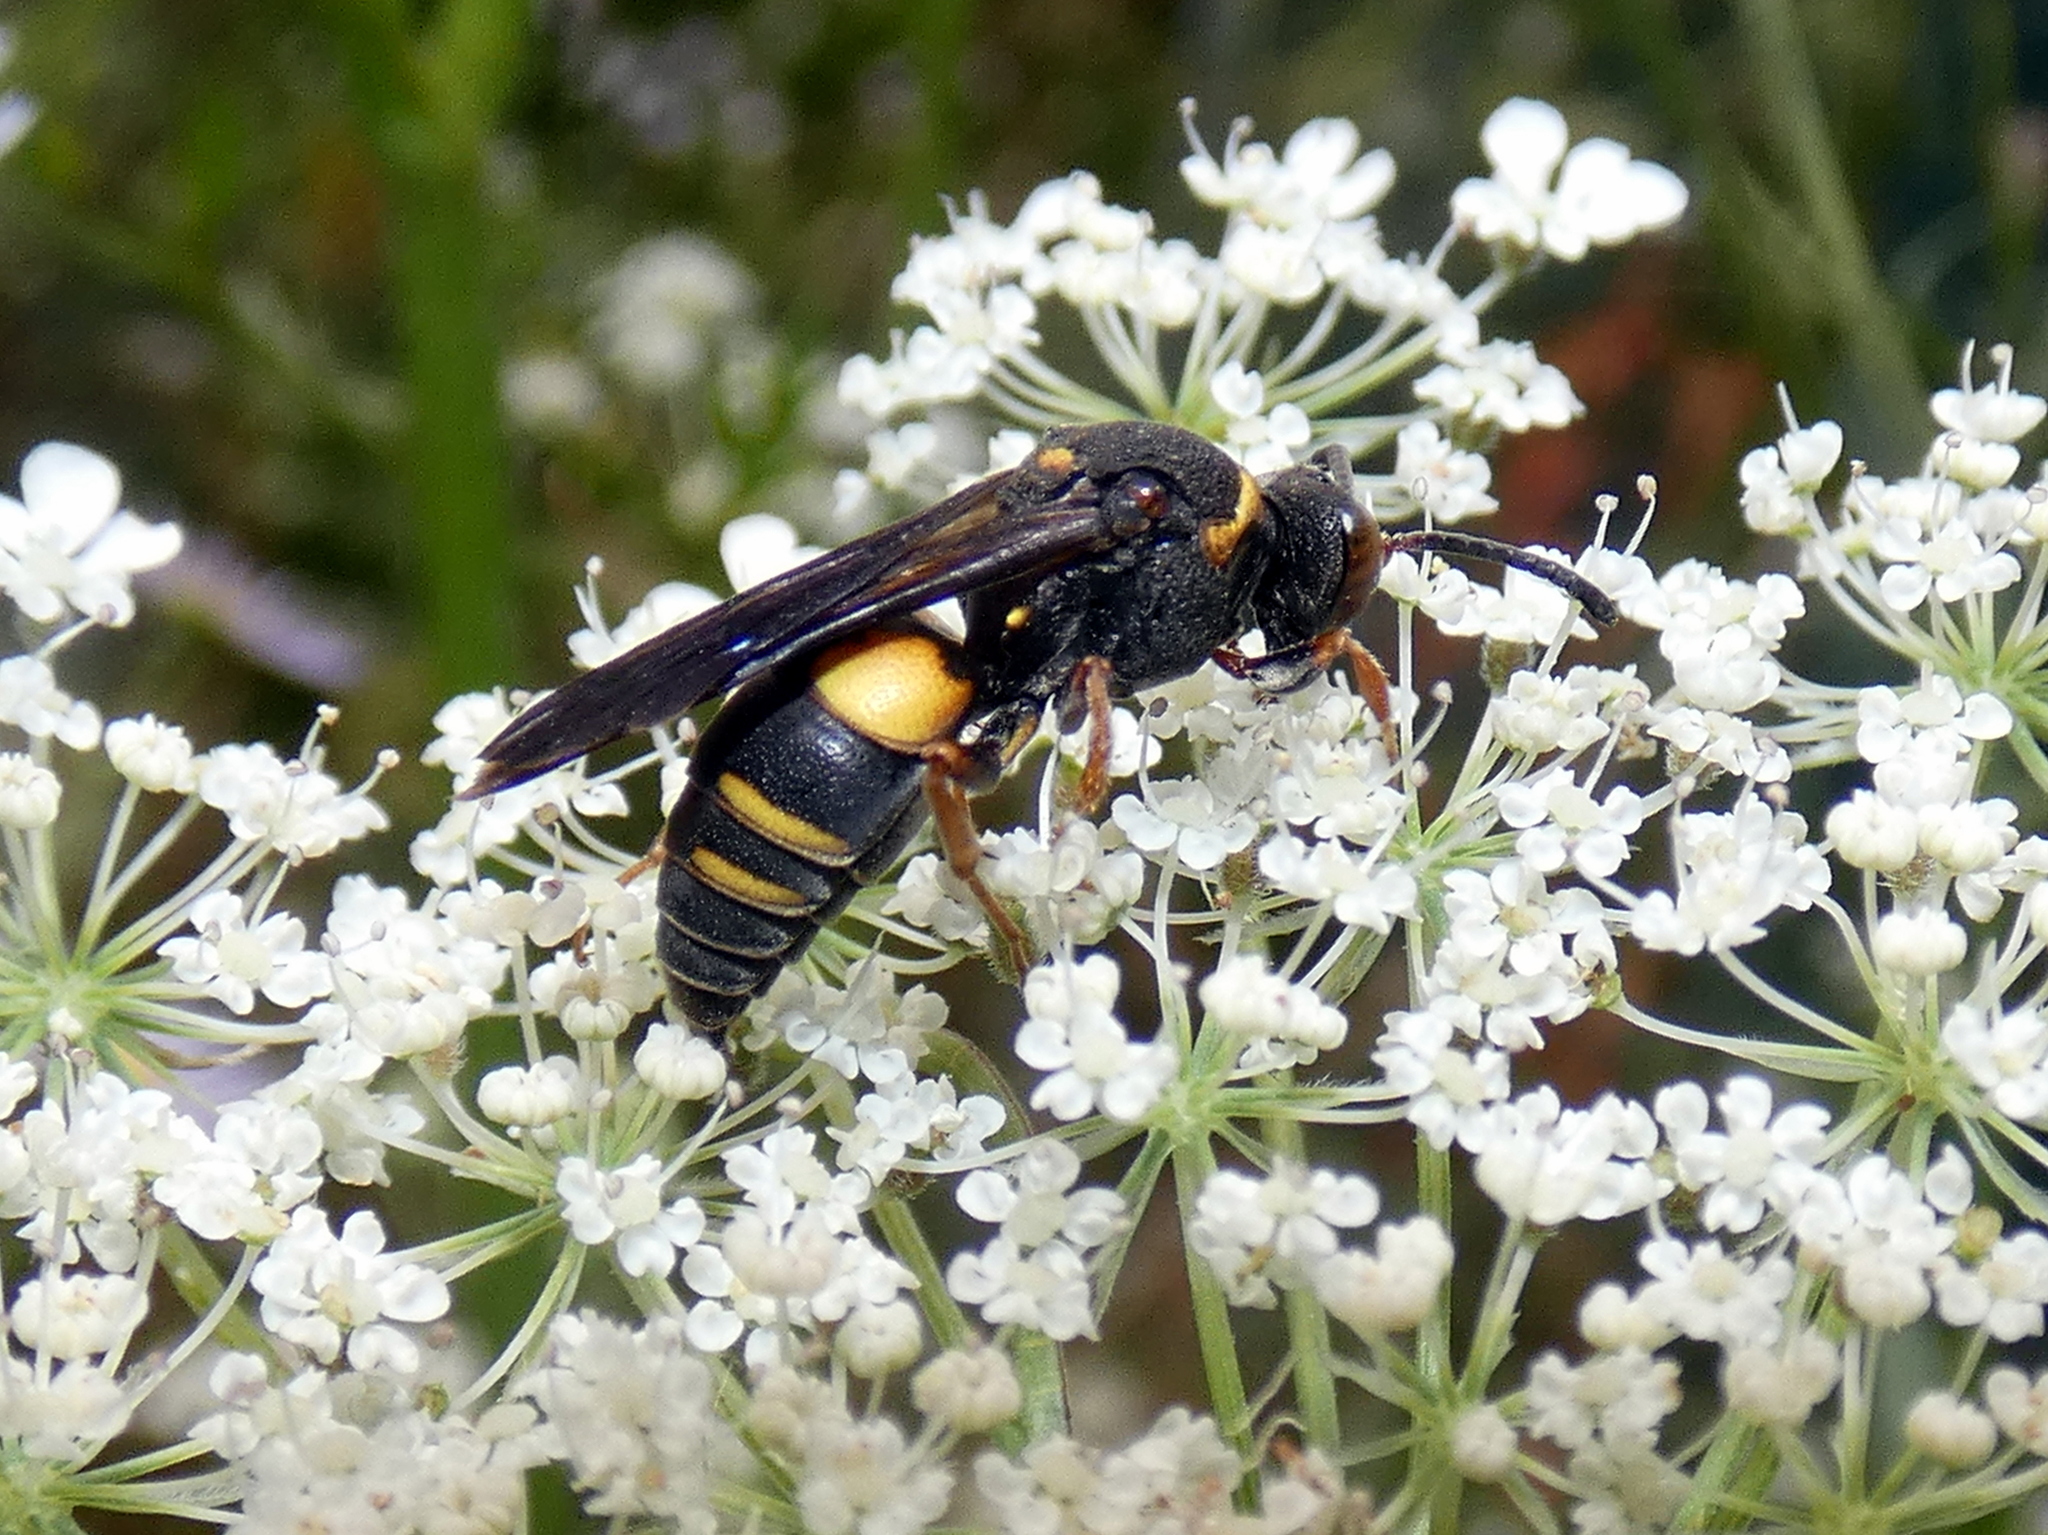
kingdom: Animalia
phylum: Arthropoda
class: Insecta
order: Hymenoptera
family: Crabronidae
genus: Nysson
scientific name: Nysson plagiatus
